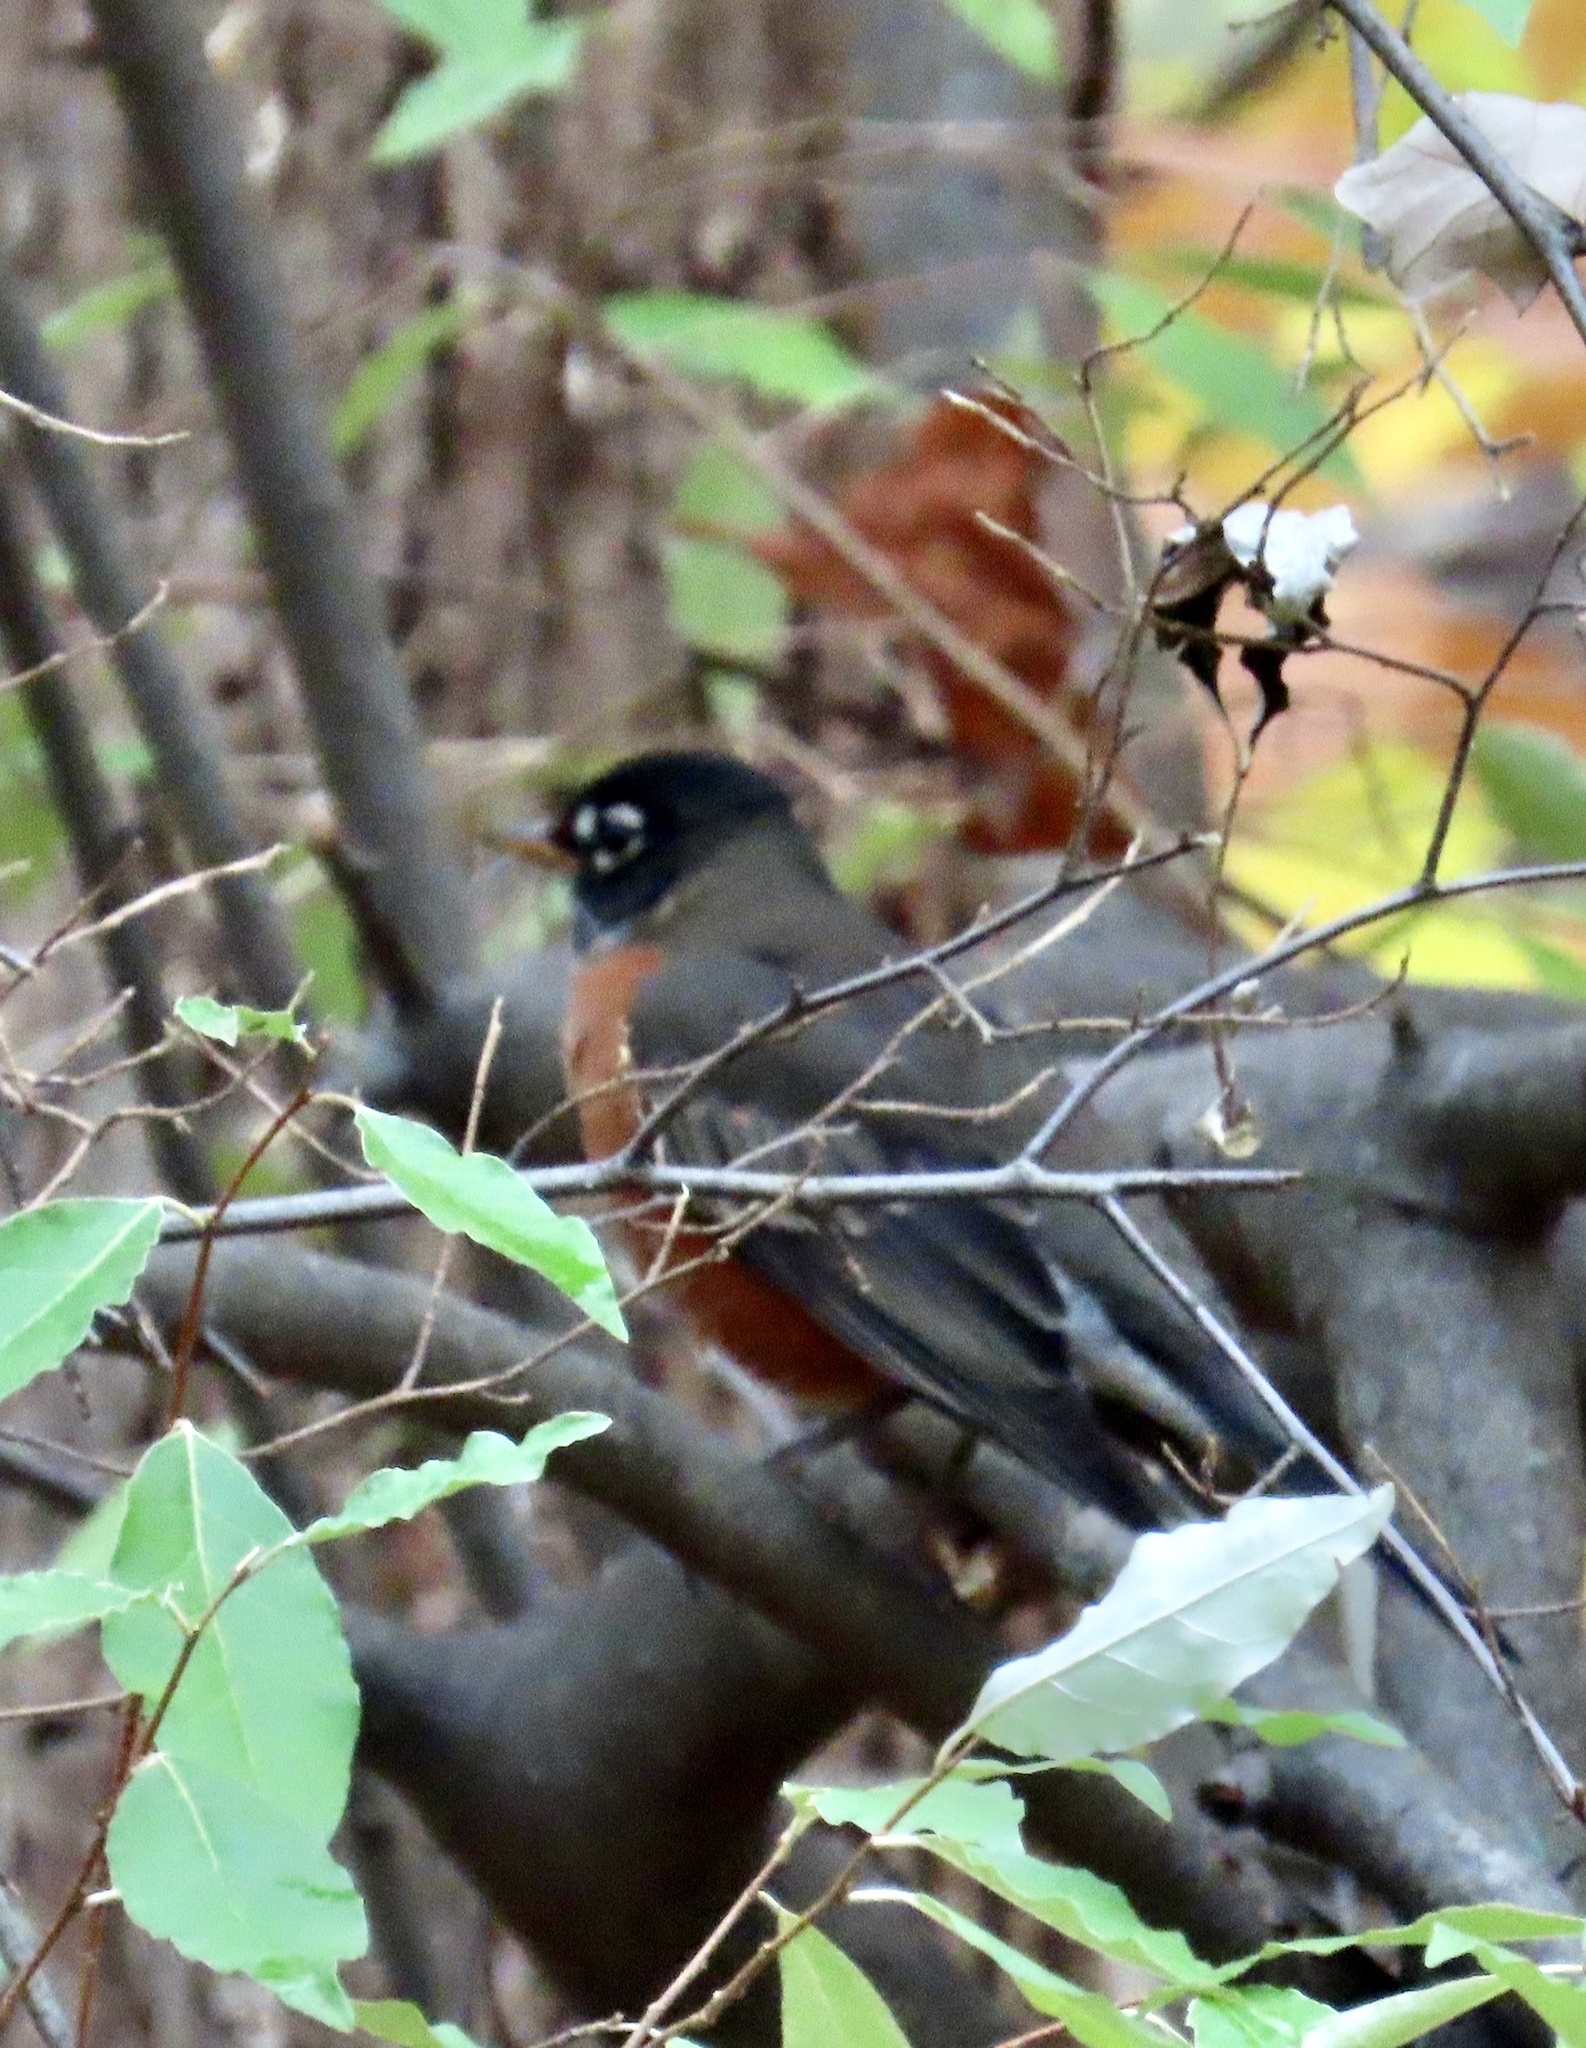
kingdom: Animalia
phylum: Chordata
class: Aves
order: Passeriformes
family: Turdidae
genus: Turdus
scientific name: Turdus migratorius
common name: American robin
